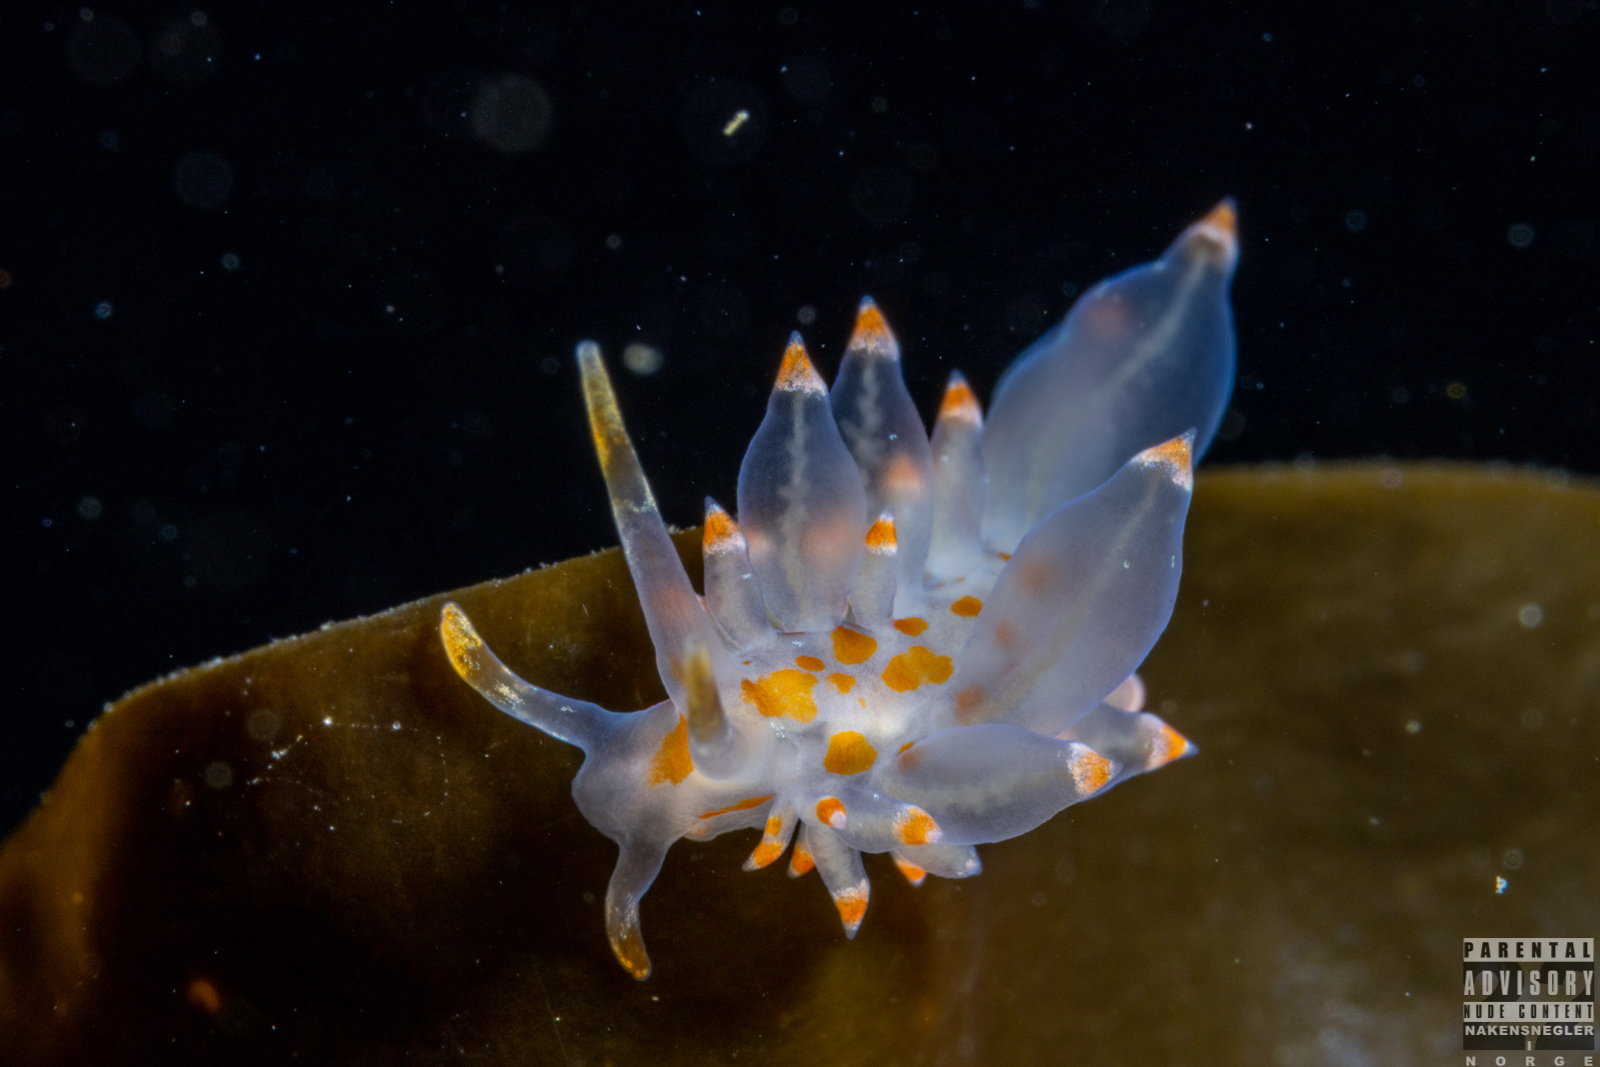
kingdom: Animalia
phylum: Mollusca
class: Gastropoda
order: Nudibranchia
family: Eubranchidae
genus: Amphorina
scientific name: Amphorina farrani
